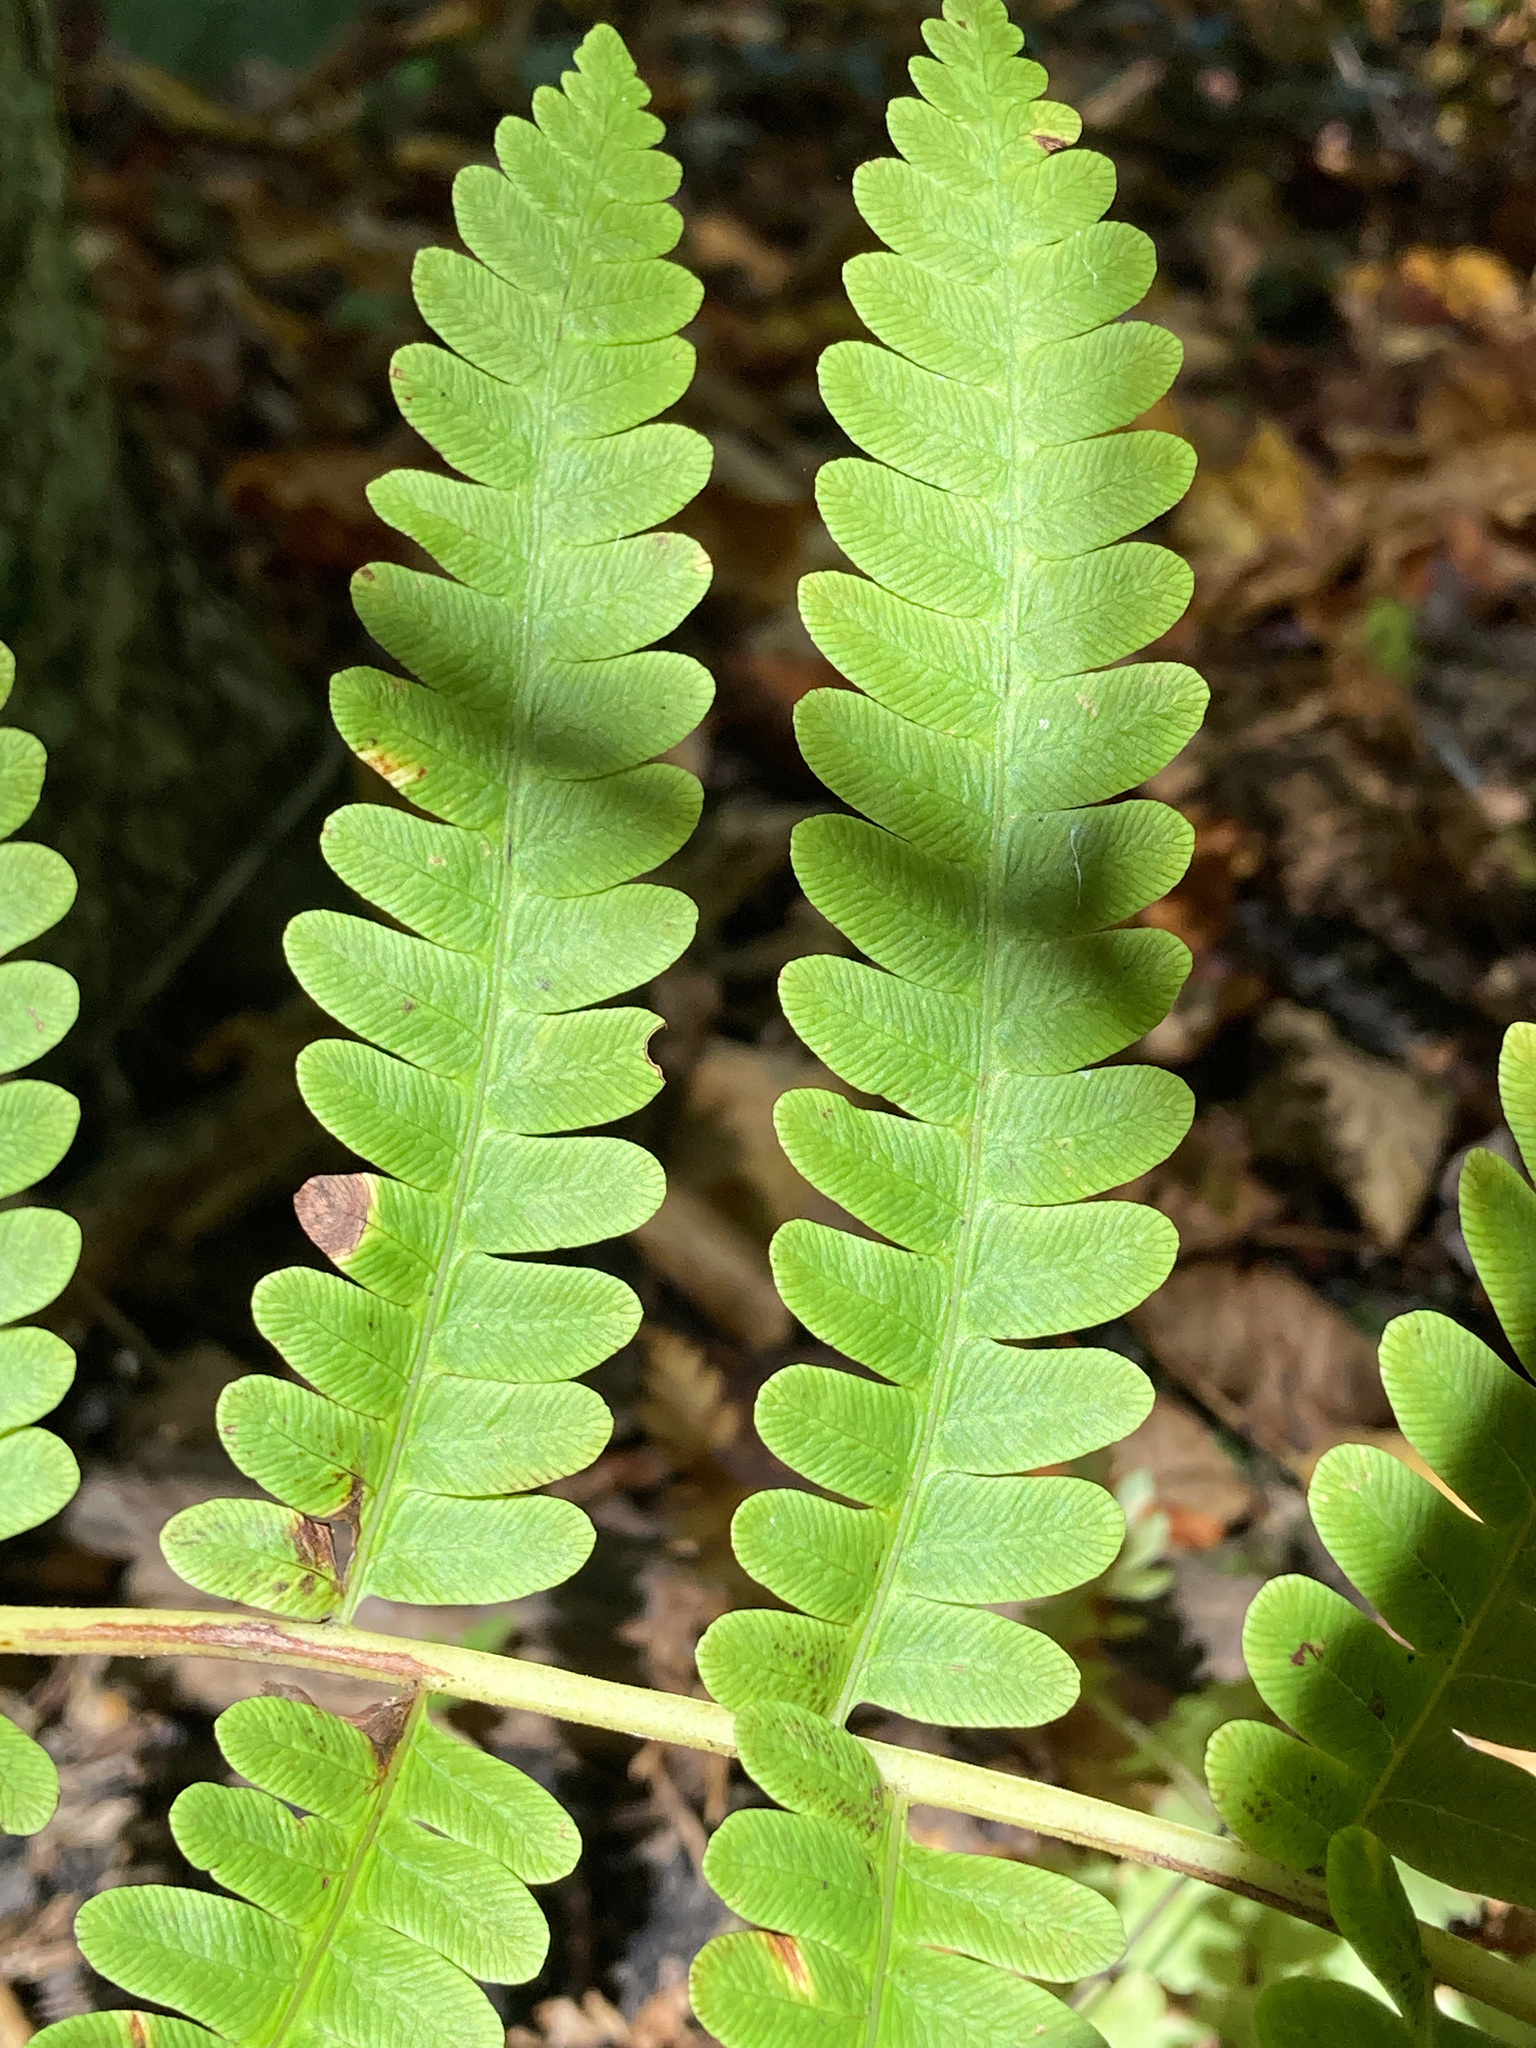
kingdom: Plantae
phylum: Tracheophyta
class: Polypodiopsida
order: Osmundales
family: Osmundaceae
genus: Osmundastrum
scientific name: Osmundastrum cinnamomeum
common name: Cinnamon fern
